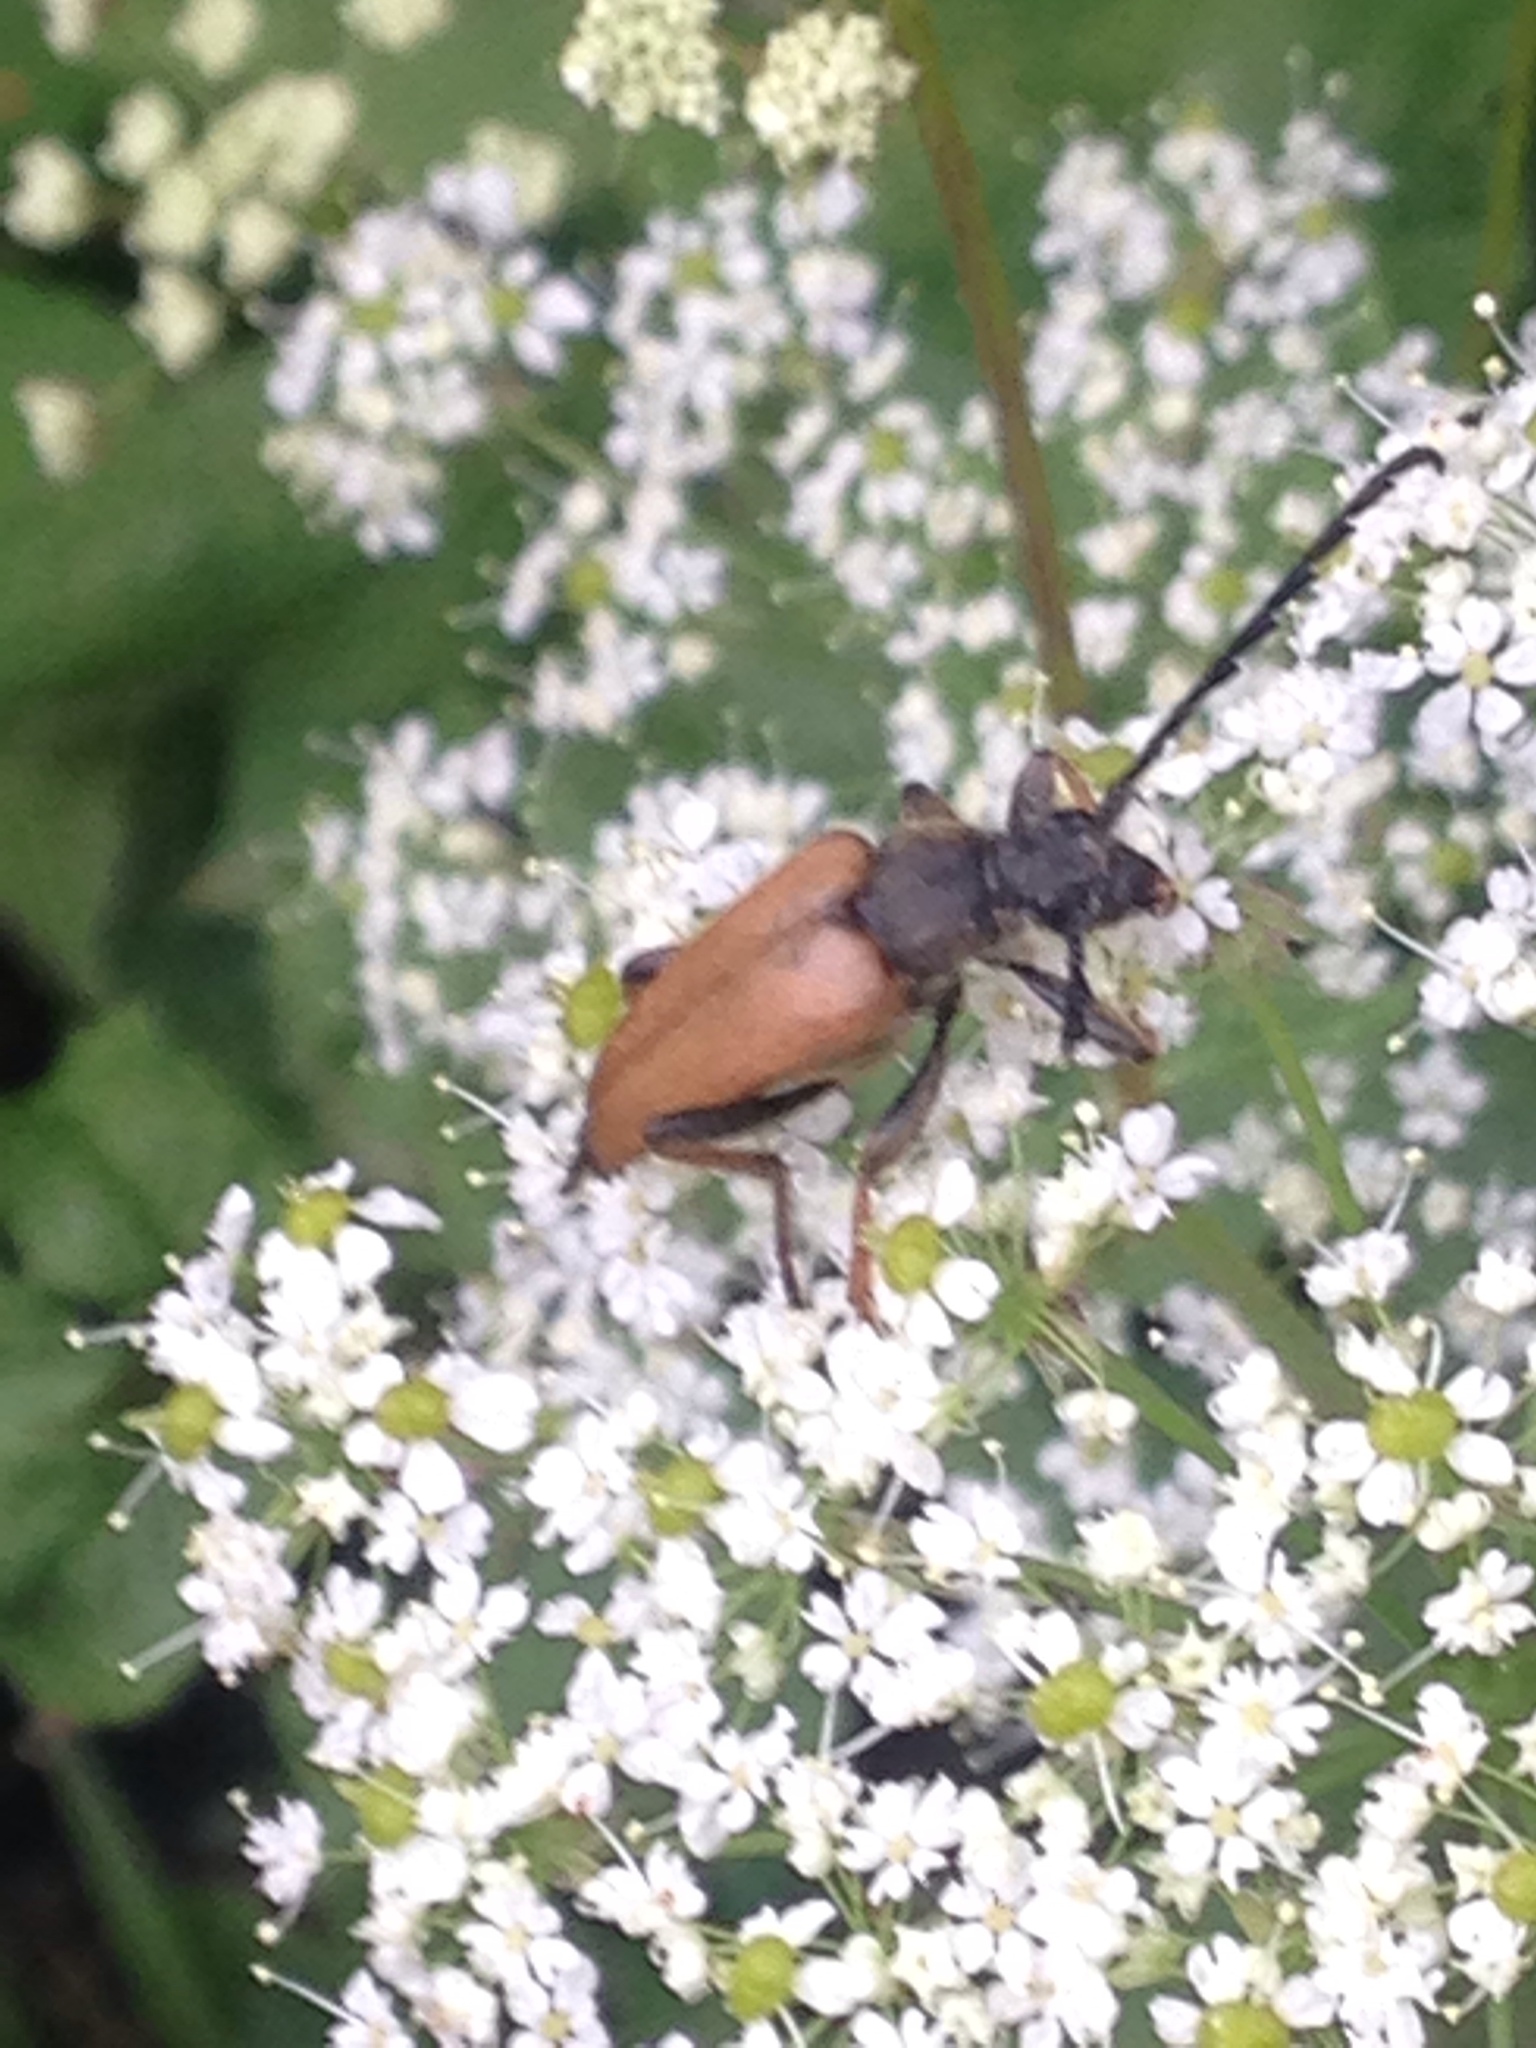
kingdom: Animalia
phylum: Arthropoda
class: Insecta
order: Coleoptera
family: Cerambycidae
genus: Stictoleptura
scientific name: Stictoleptura rubra
